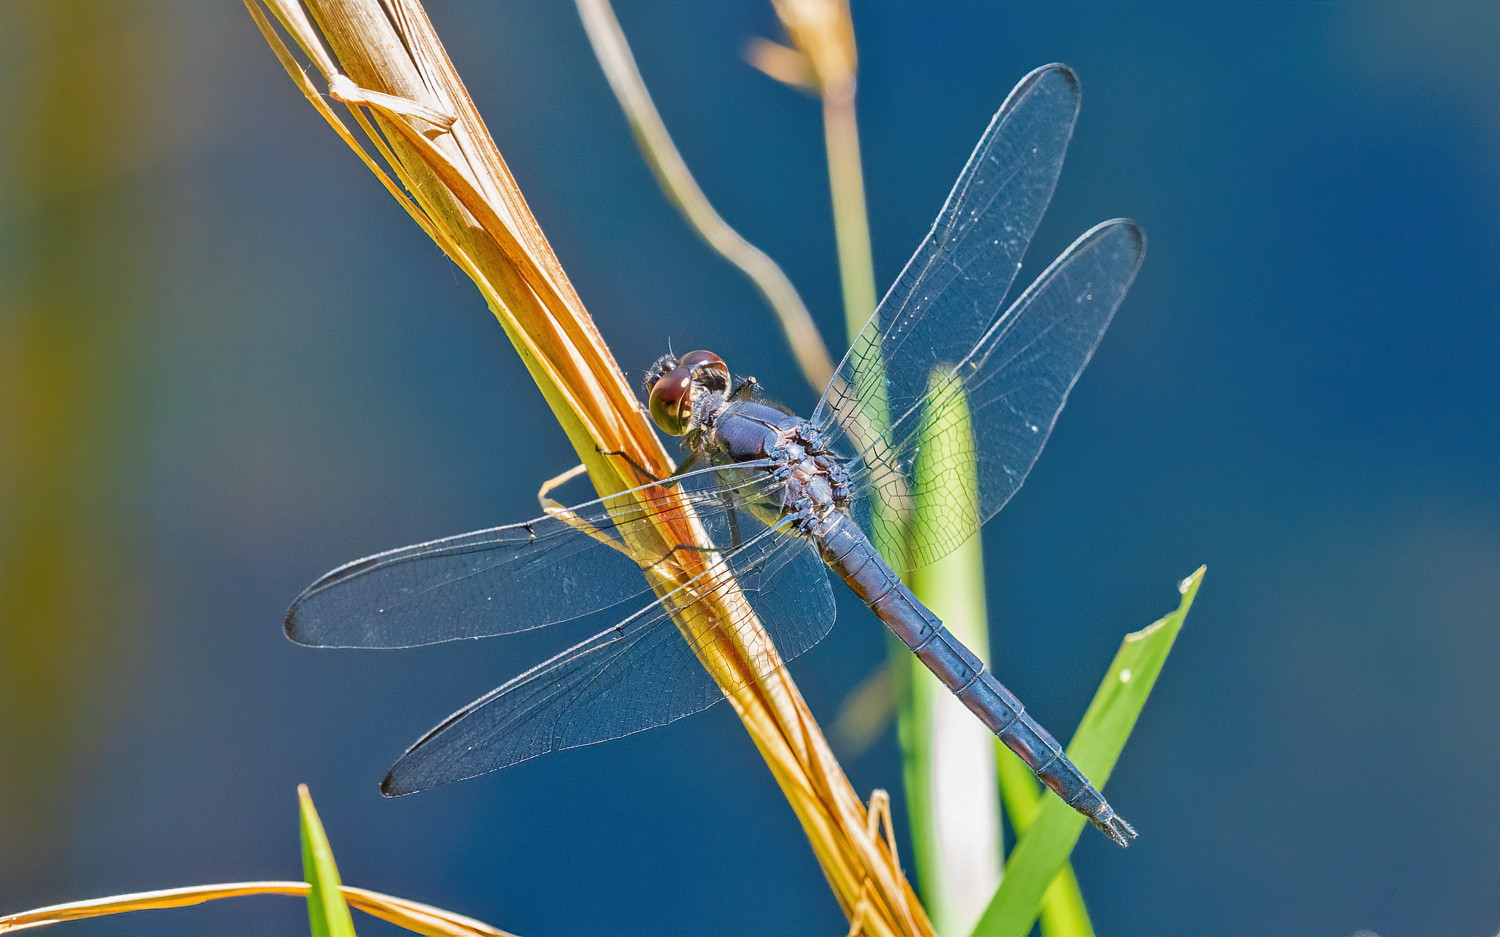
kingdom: Animalia
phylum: Arthropoda
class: Insecta
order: Odonata
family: Libellulidae
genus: Libellula
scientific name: Libellula incesta
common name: Slaty skimmer
